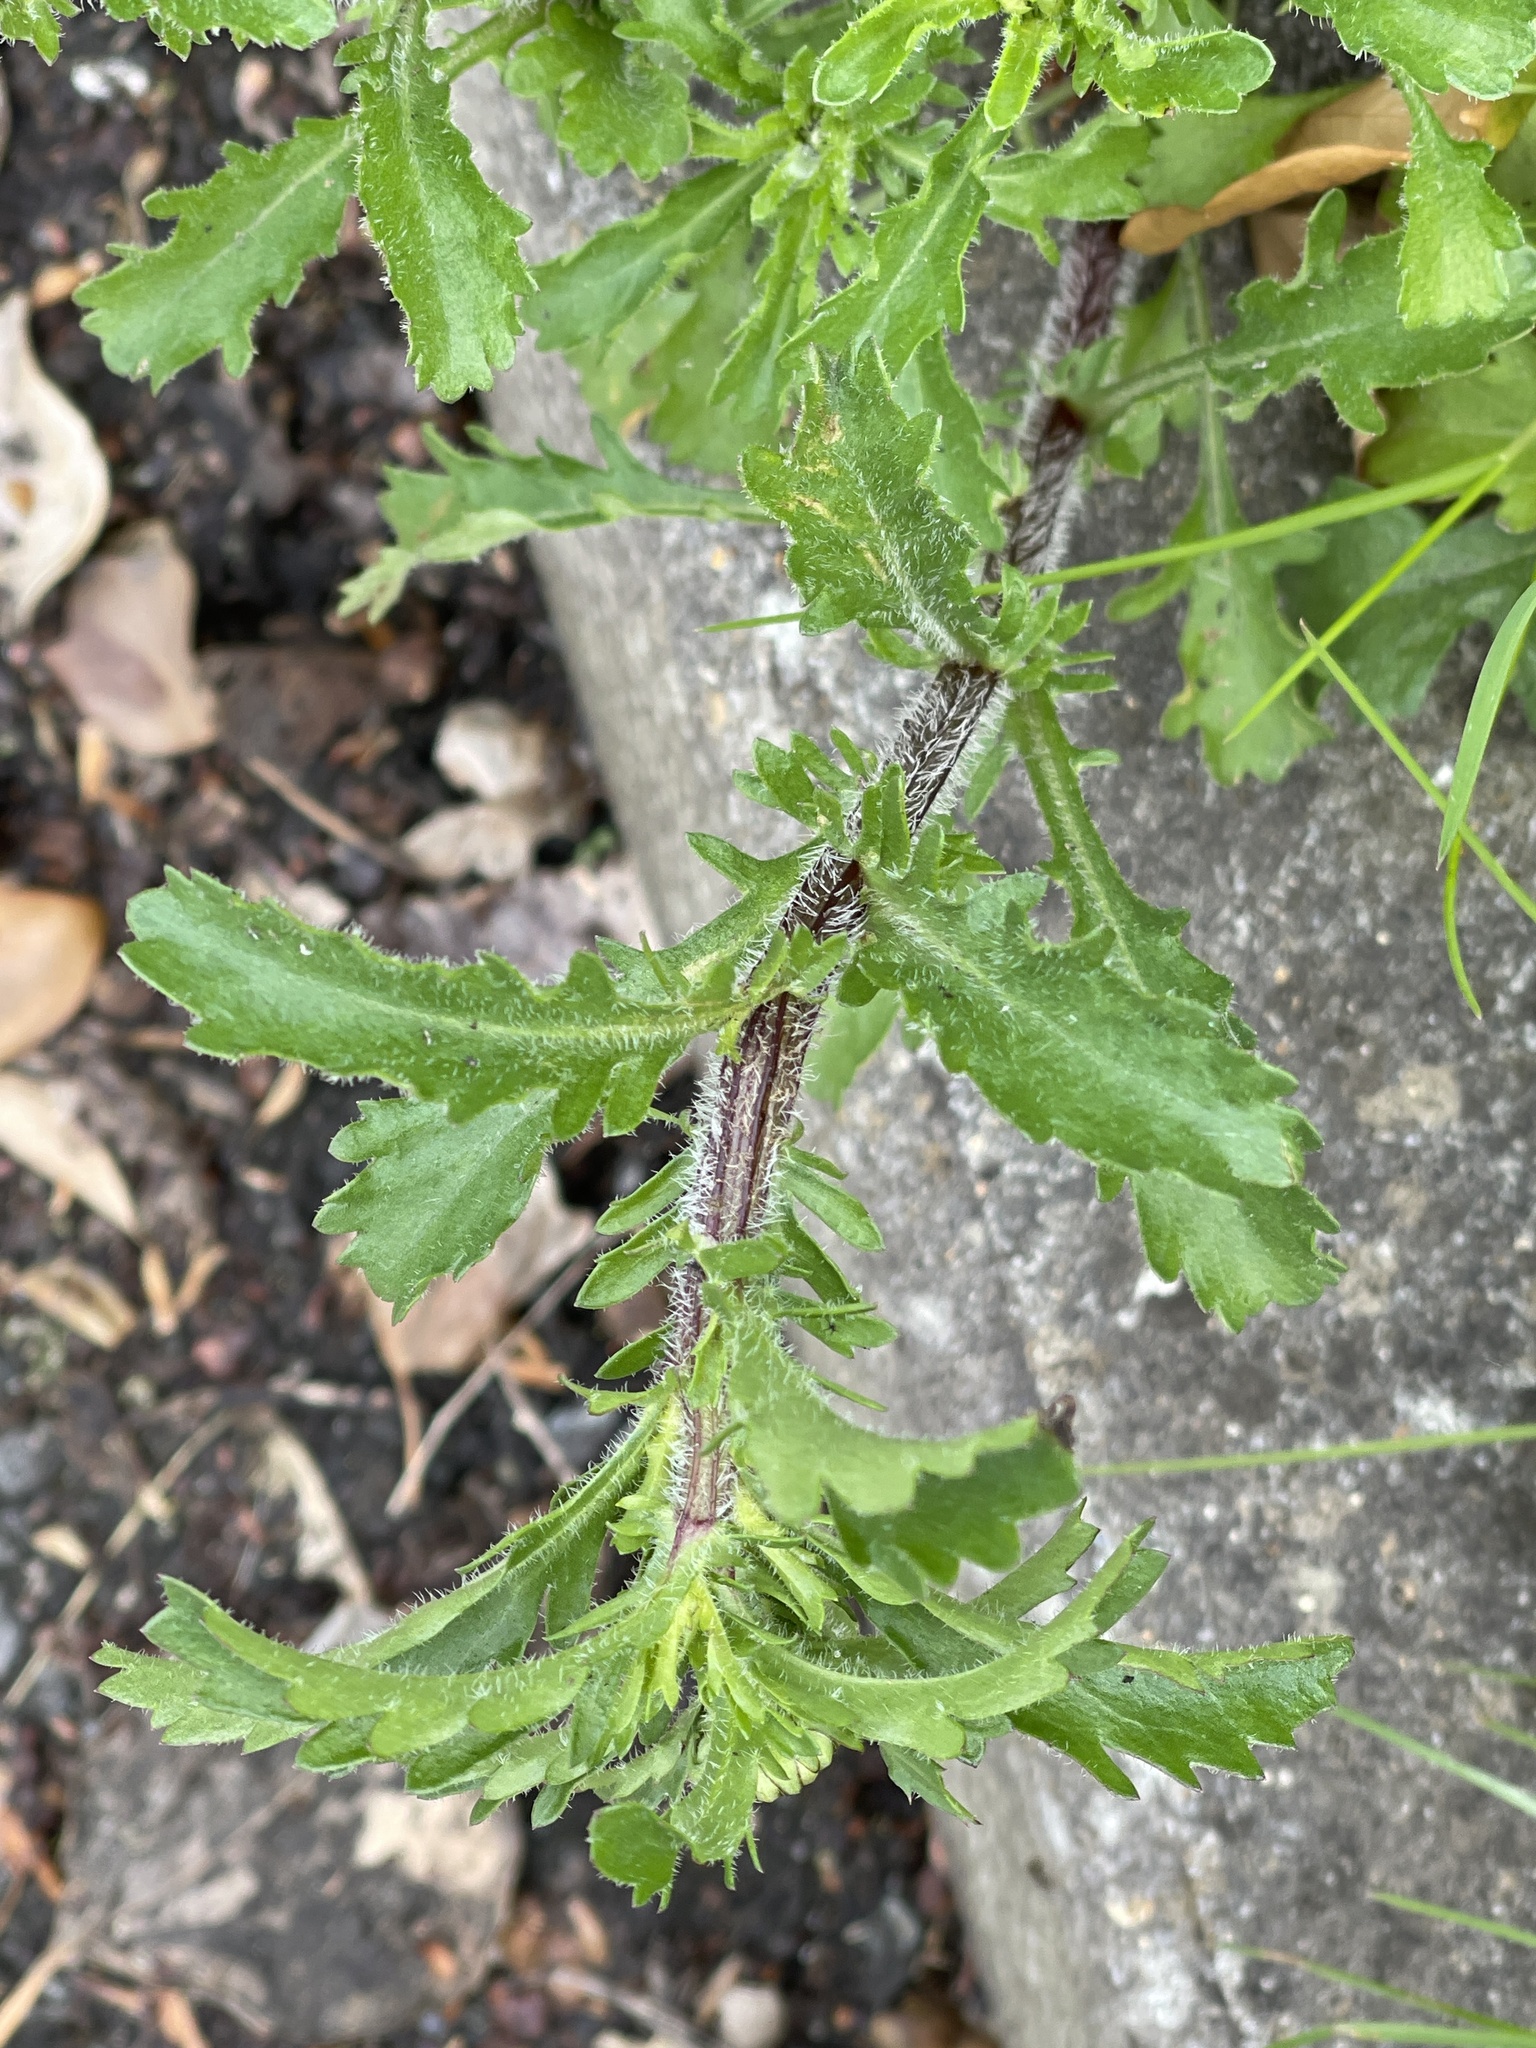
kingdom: Plantae
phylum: Tracheophyta
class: Magnoliopsida
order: Asterales
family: Asteraceae
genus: Leucanthemum
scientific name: Leucanthemum vulgare
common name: Oxeye daisy
